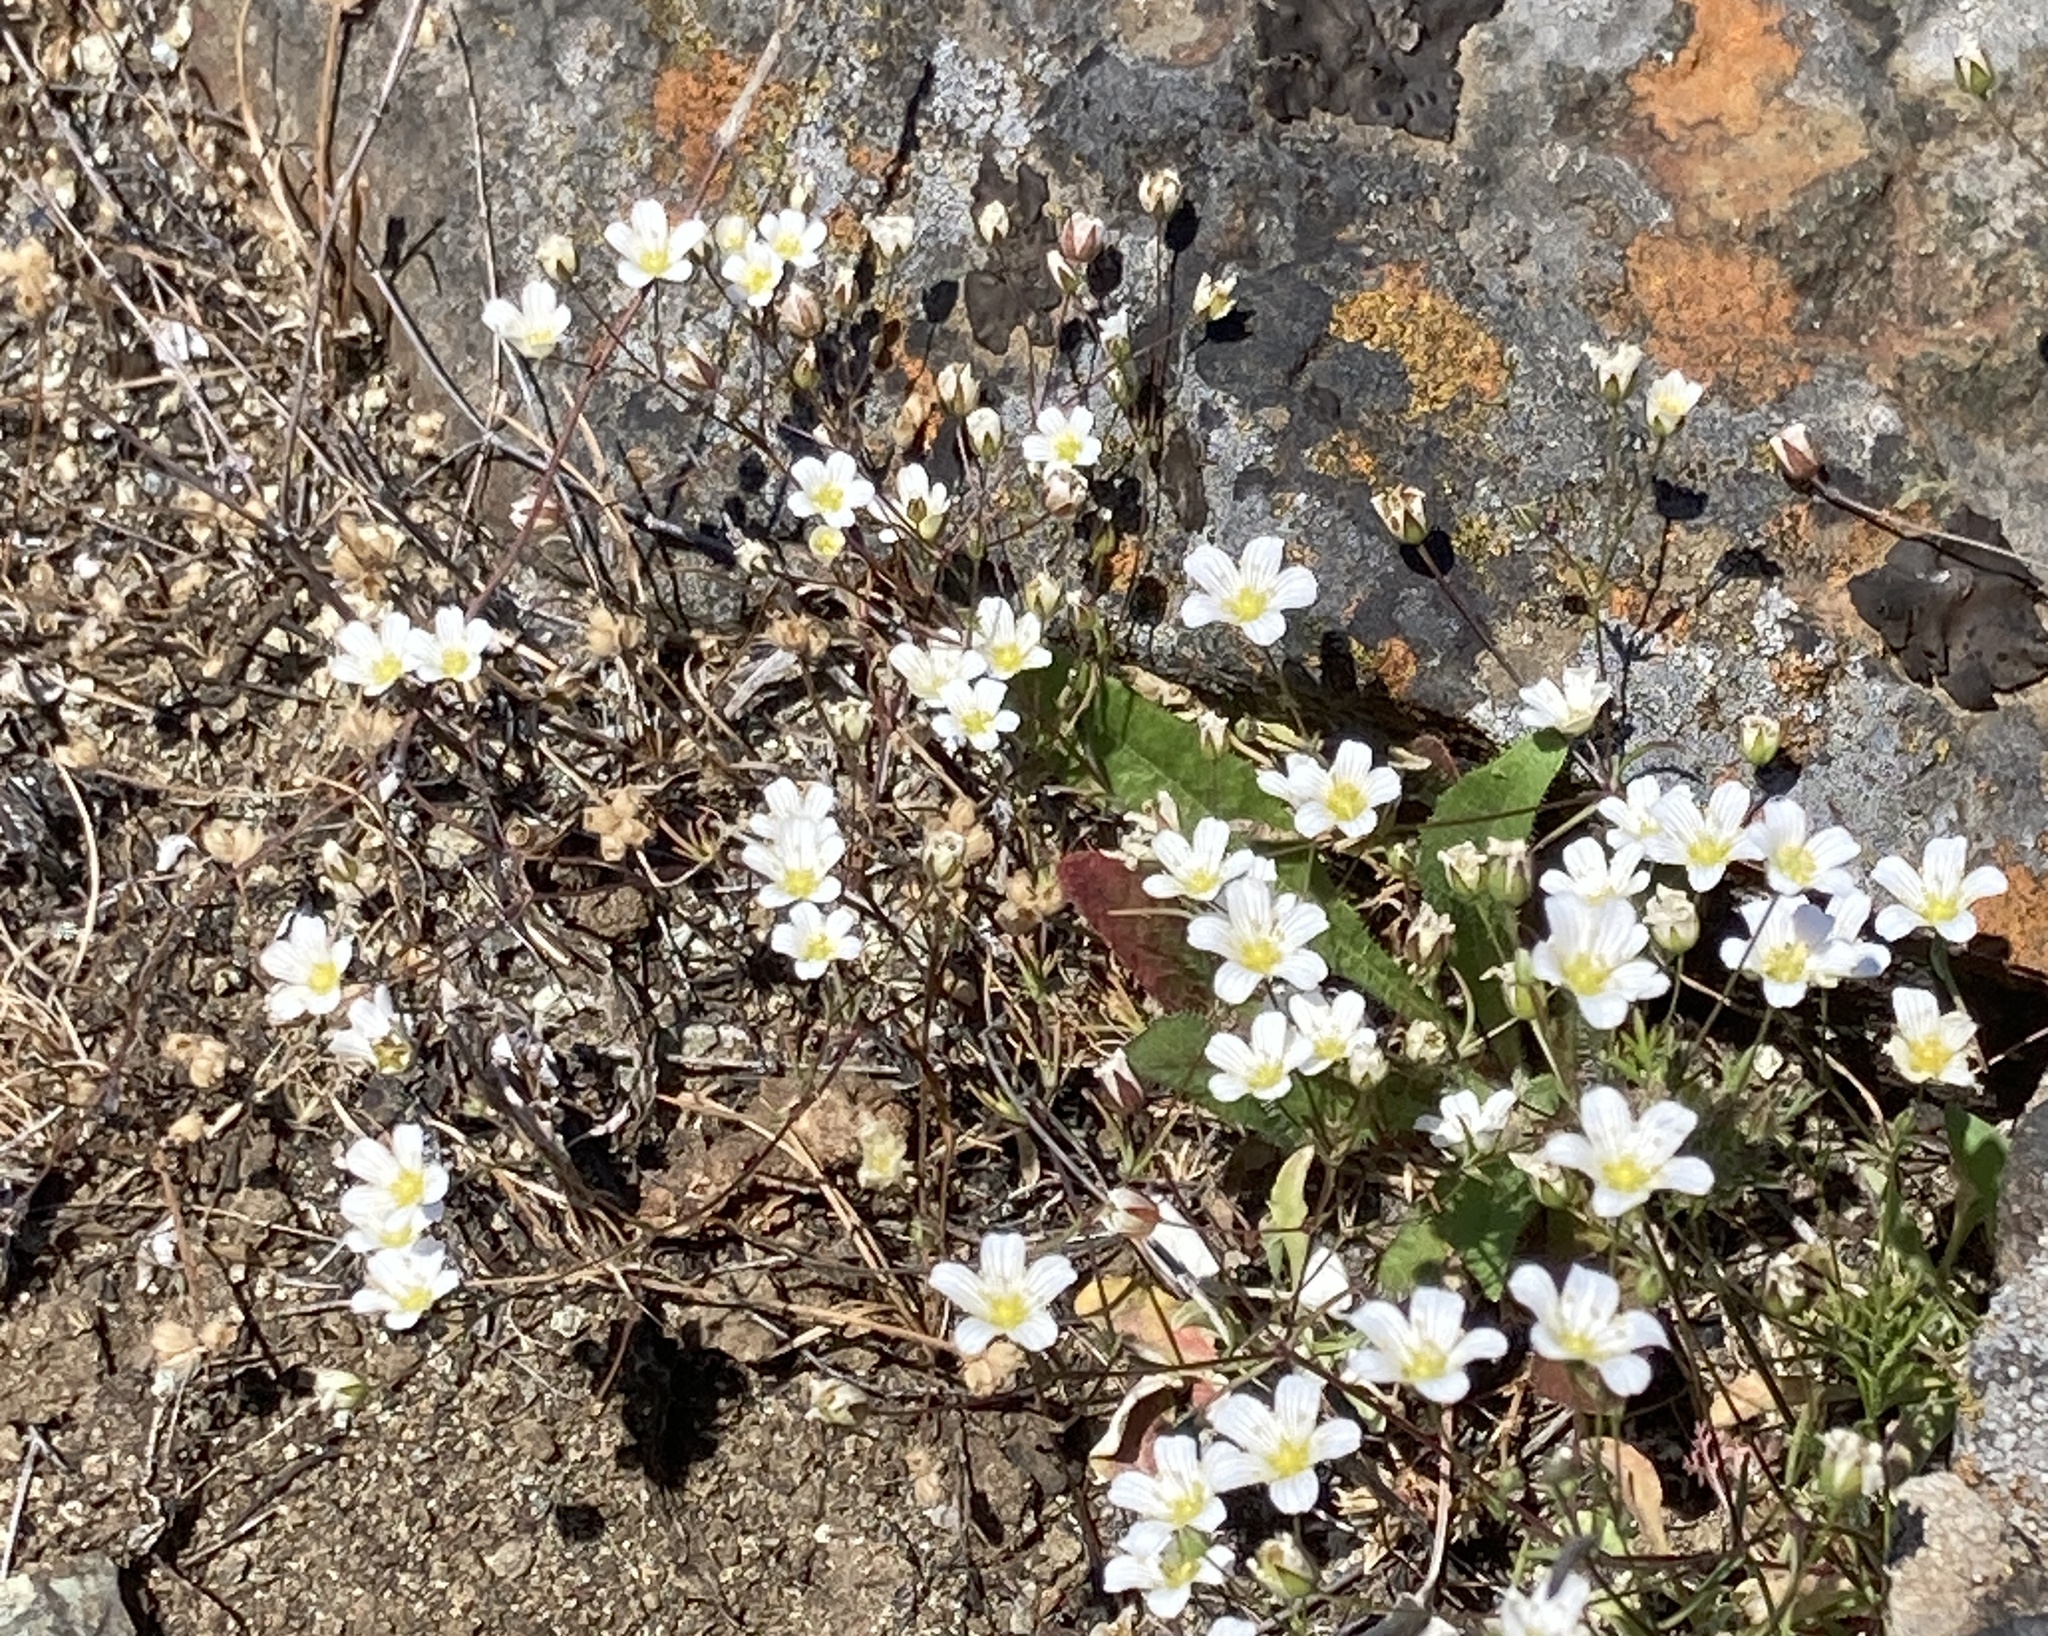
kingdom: Plantae
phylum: Tracheophyta
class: Magnoliopsida
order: Caryophyllales
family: Caryophyllaceae
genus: Sabulina
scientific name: Sabulina douglasii
